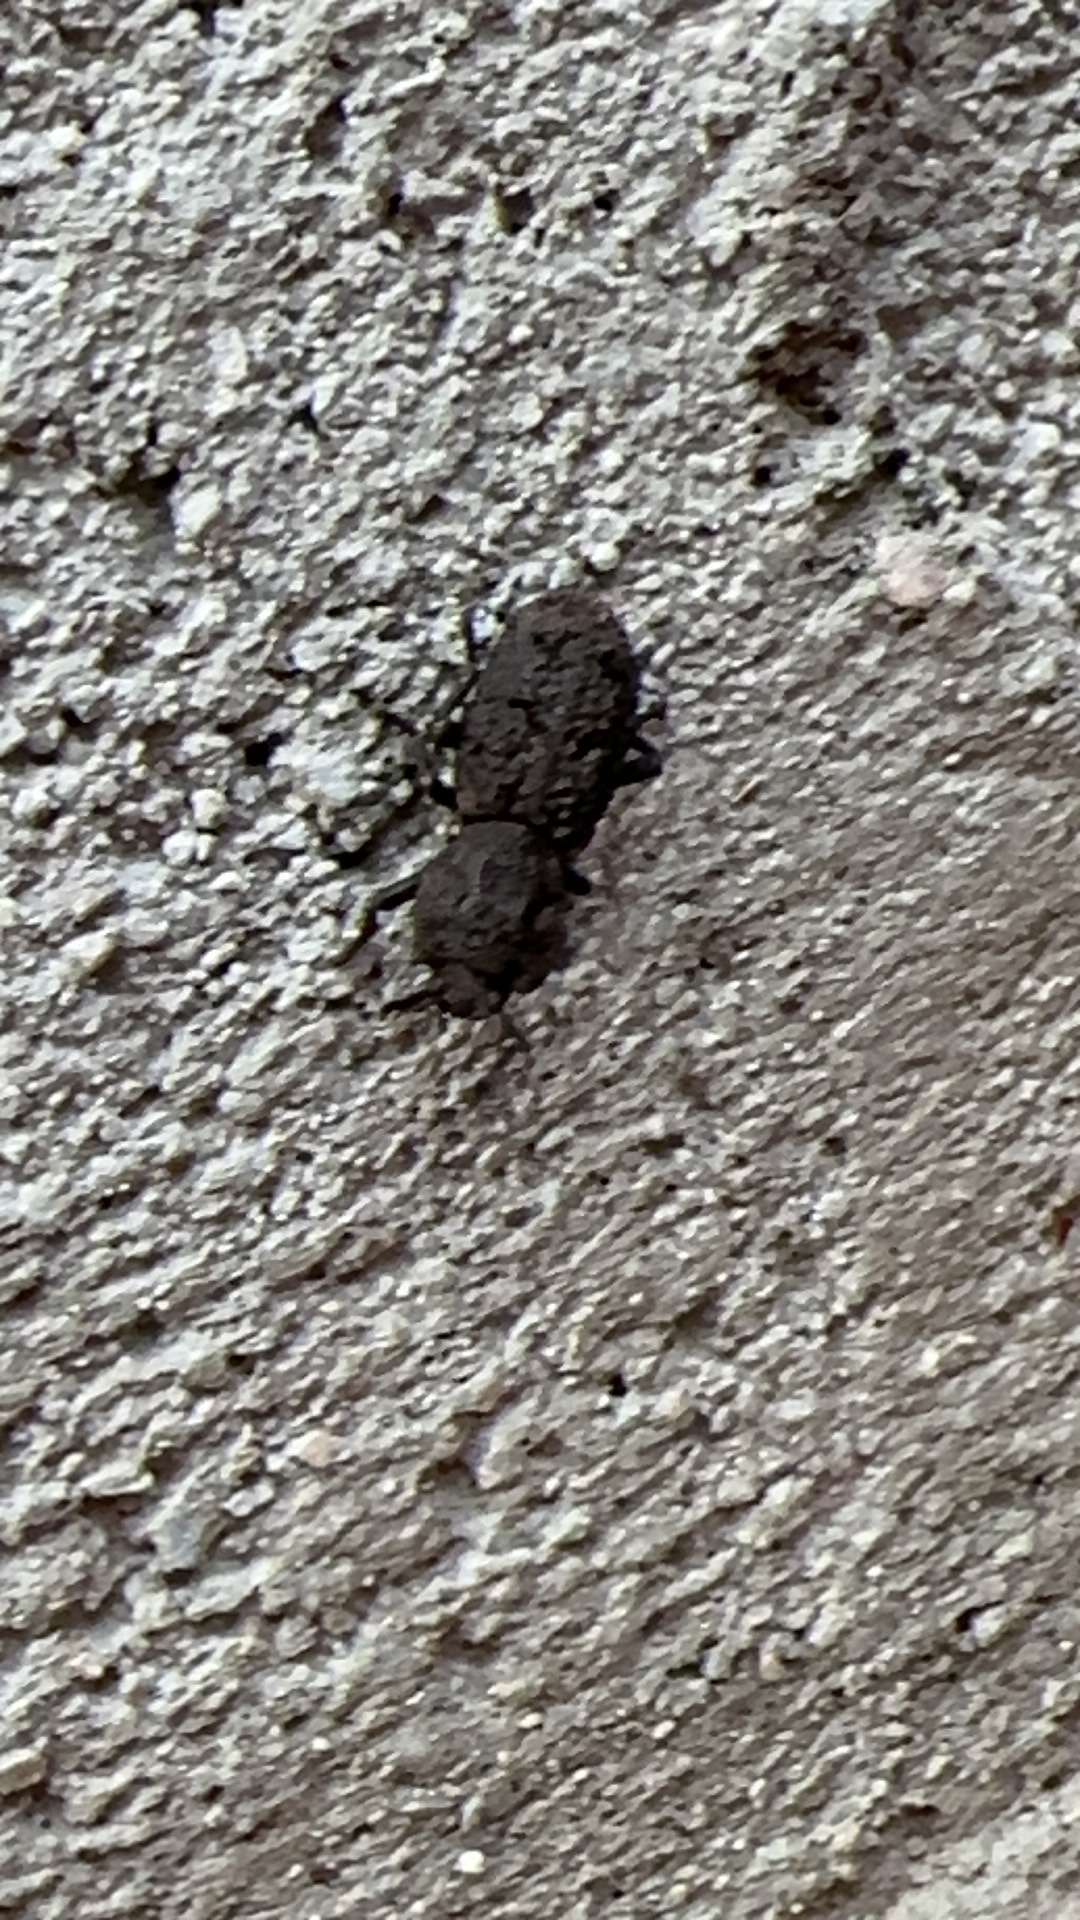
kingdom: Animalia
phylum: Arthropoda
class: Insecta
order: Coleoptera
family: Zopheridae
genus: Phloeodes
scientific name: Phloeodes diabolicus
